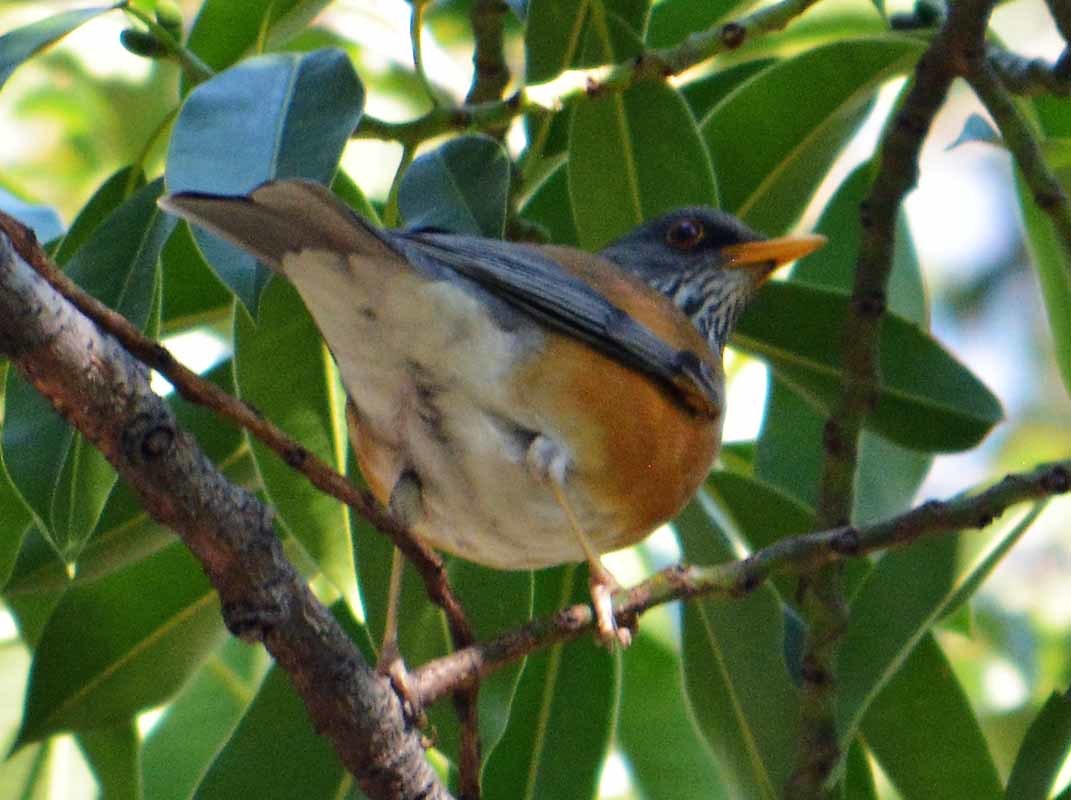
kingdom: Animalia
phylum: Chordata
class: Aves
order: Passeriformes
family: Turdidae
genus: Turdus
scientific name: Turdus rufopalliatus
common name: Rufous-backed robin
